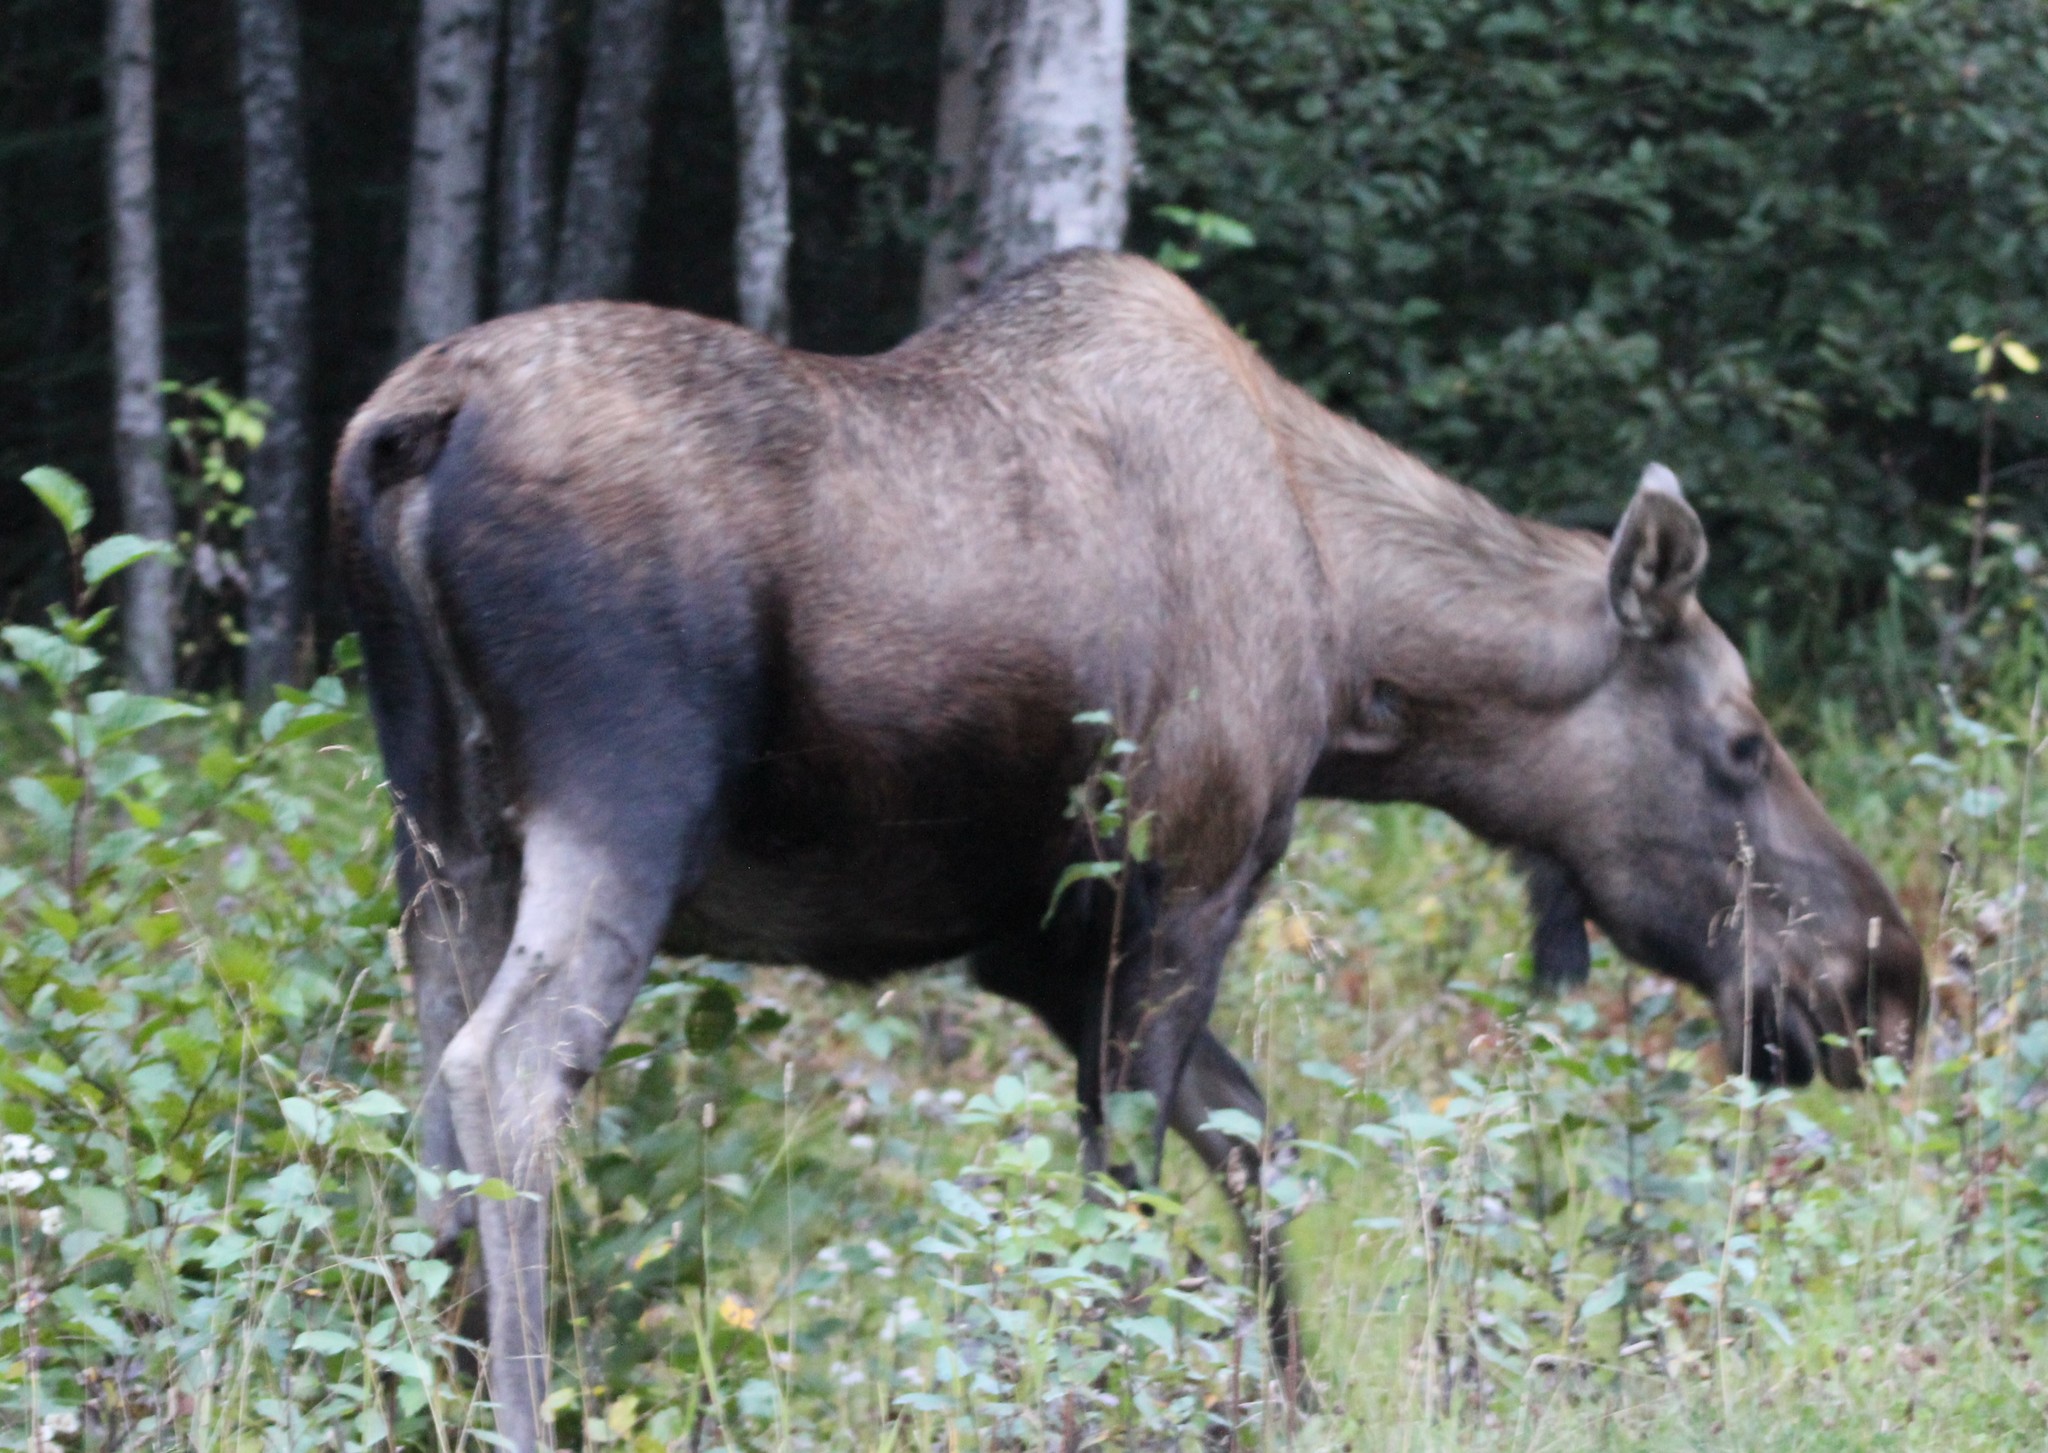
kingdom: Animalia
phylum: Chordata
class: Mammalia
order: Artiodactyla
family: Cervidae
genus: Alces
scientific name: Alces alces
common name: Moose
